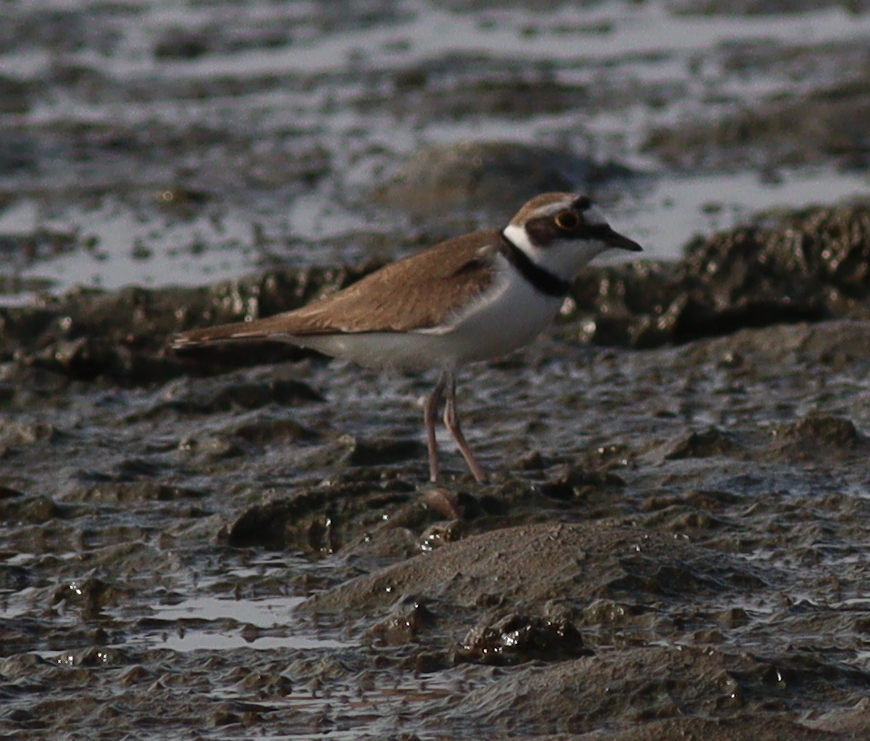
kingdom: Animalia
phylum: Chordata
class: Aves
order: Charadriiformes
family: Charadriidae
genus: Charadrius
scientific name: Charadrius dubius
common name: Little ringed plover
